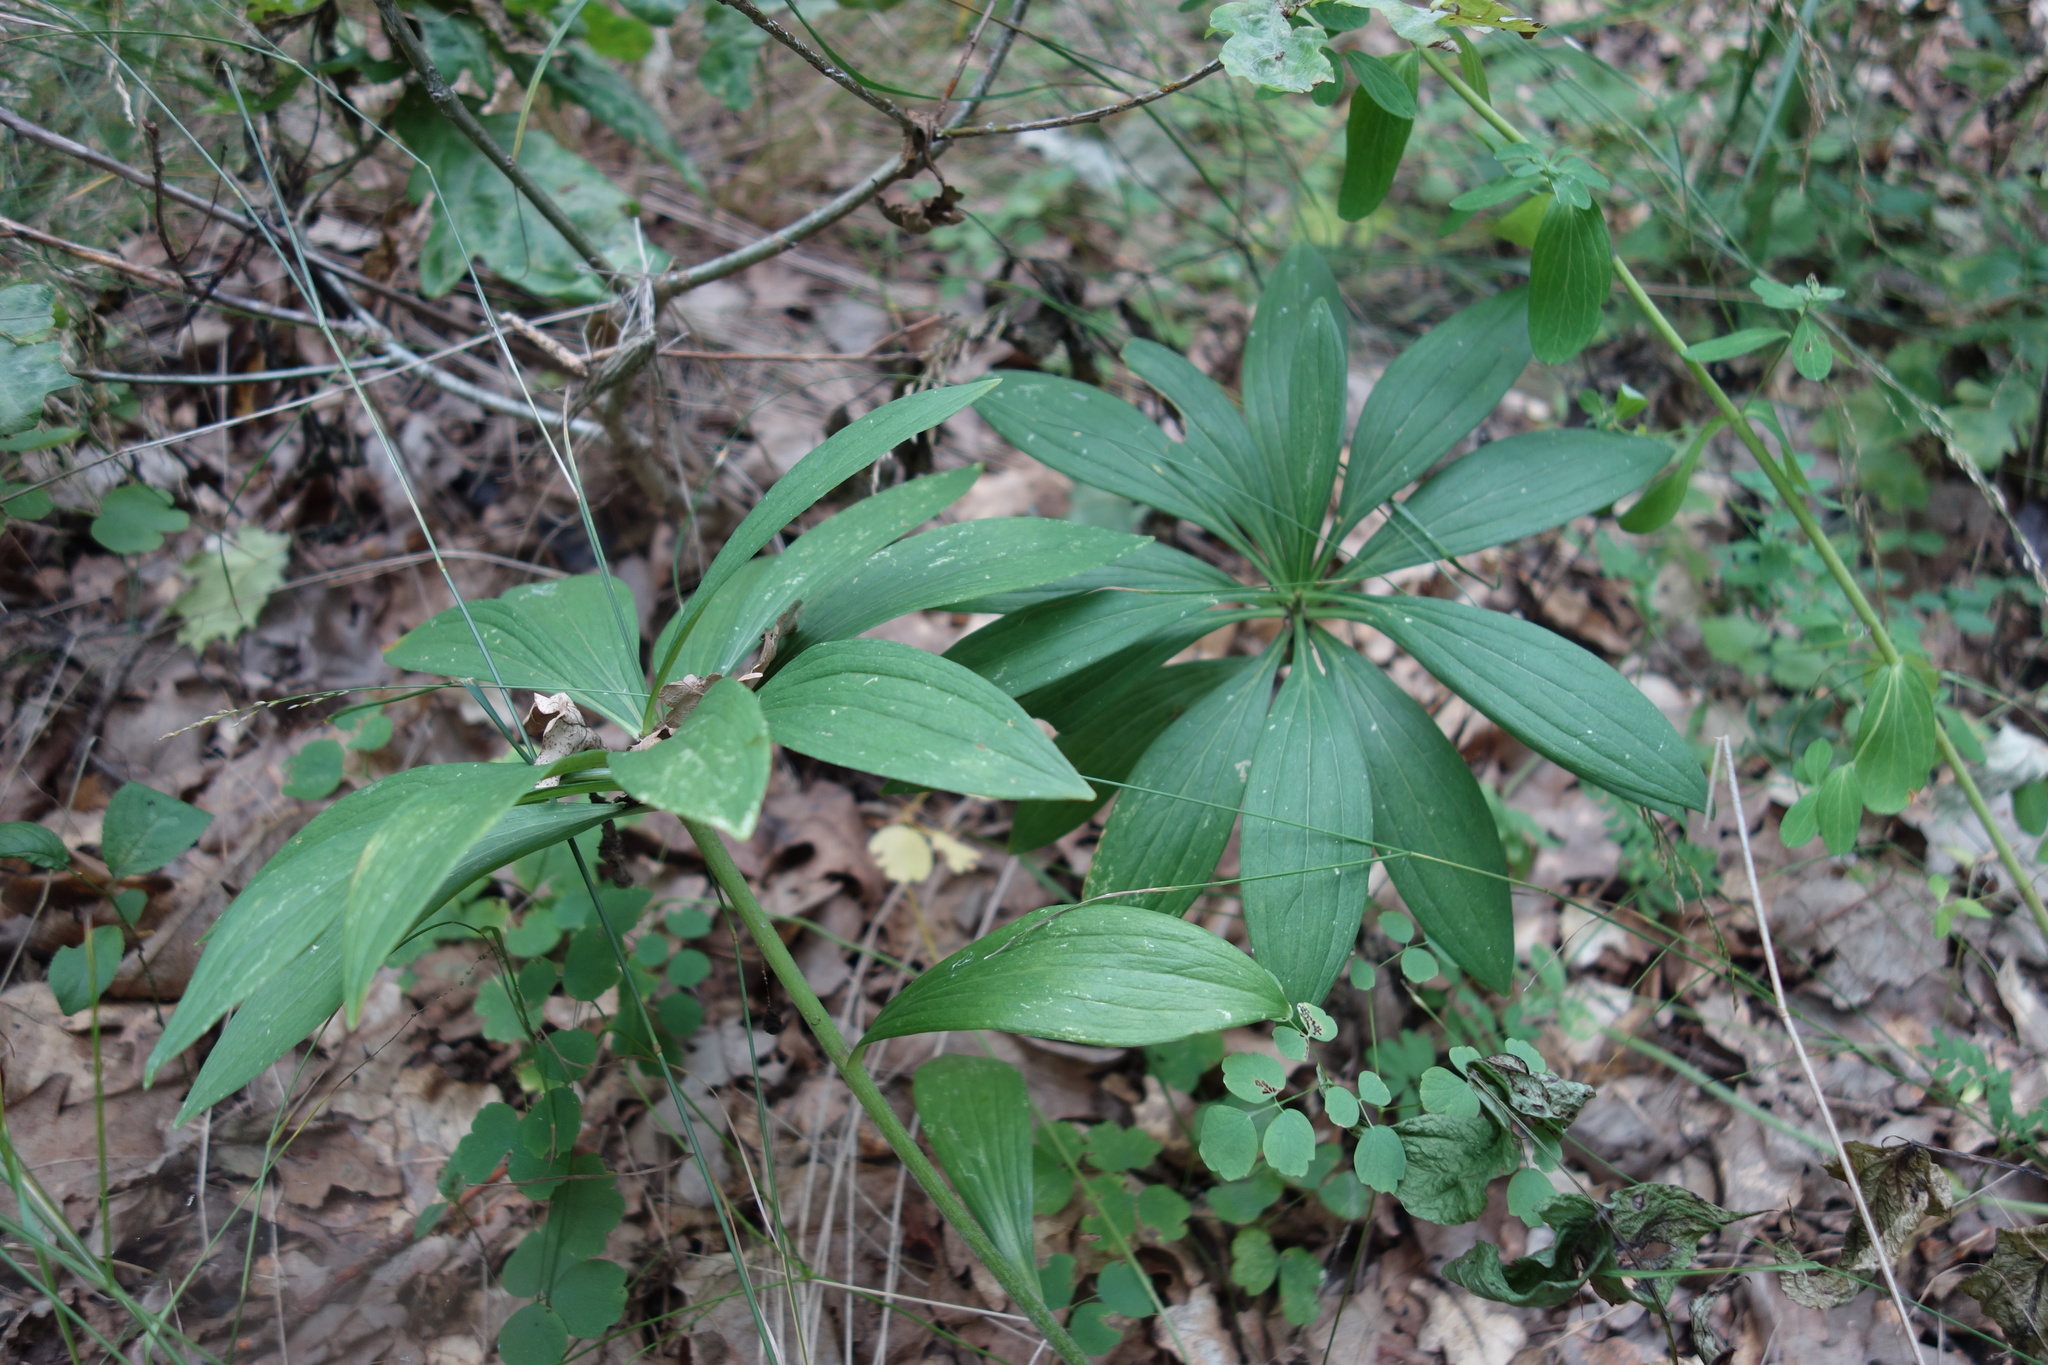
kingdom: Plantae
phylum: Tracheophyta
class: Liliopsida
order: Liliales
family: Liliaceae
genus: Lilium
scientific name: Lilium martagon
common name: Martagon lily
